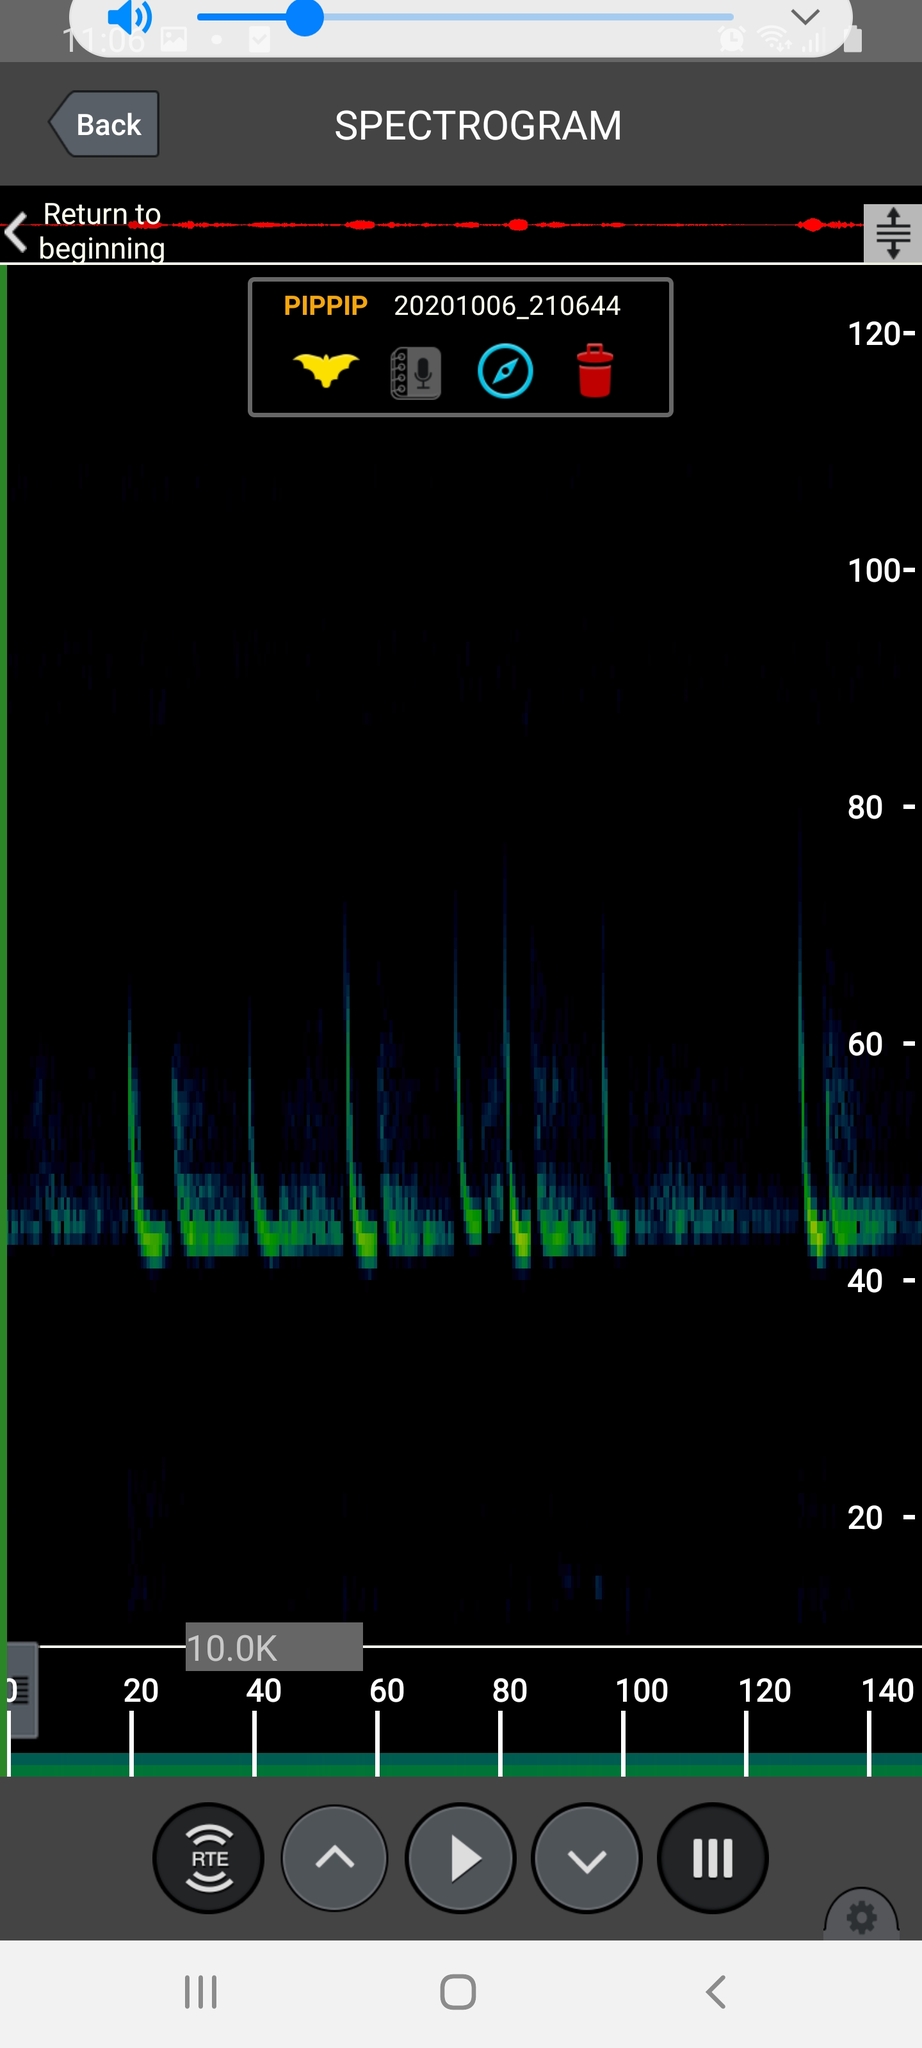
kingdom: Animalia
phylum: Chordata
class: Mammalia
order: Chiroptera
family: Vespertilionidae
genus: Pipistrellus
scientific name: Pipistrellus pipistrellus
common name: Common pipistrelle
